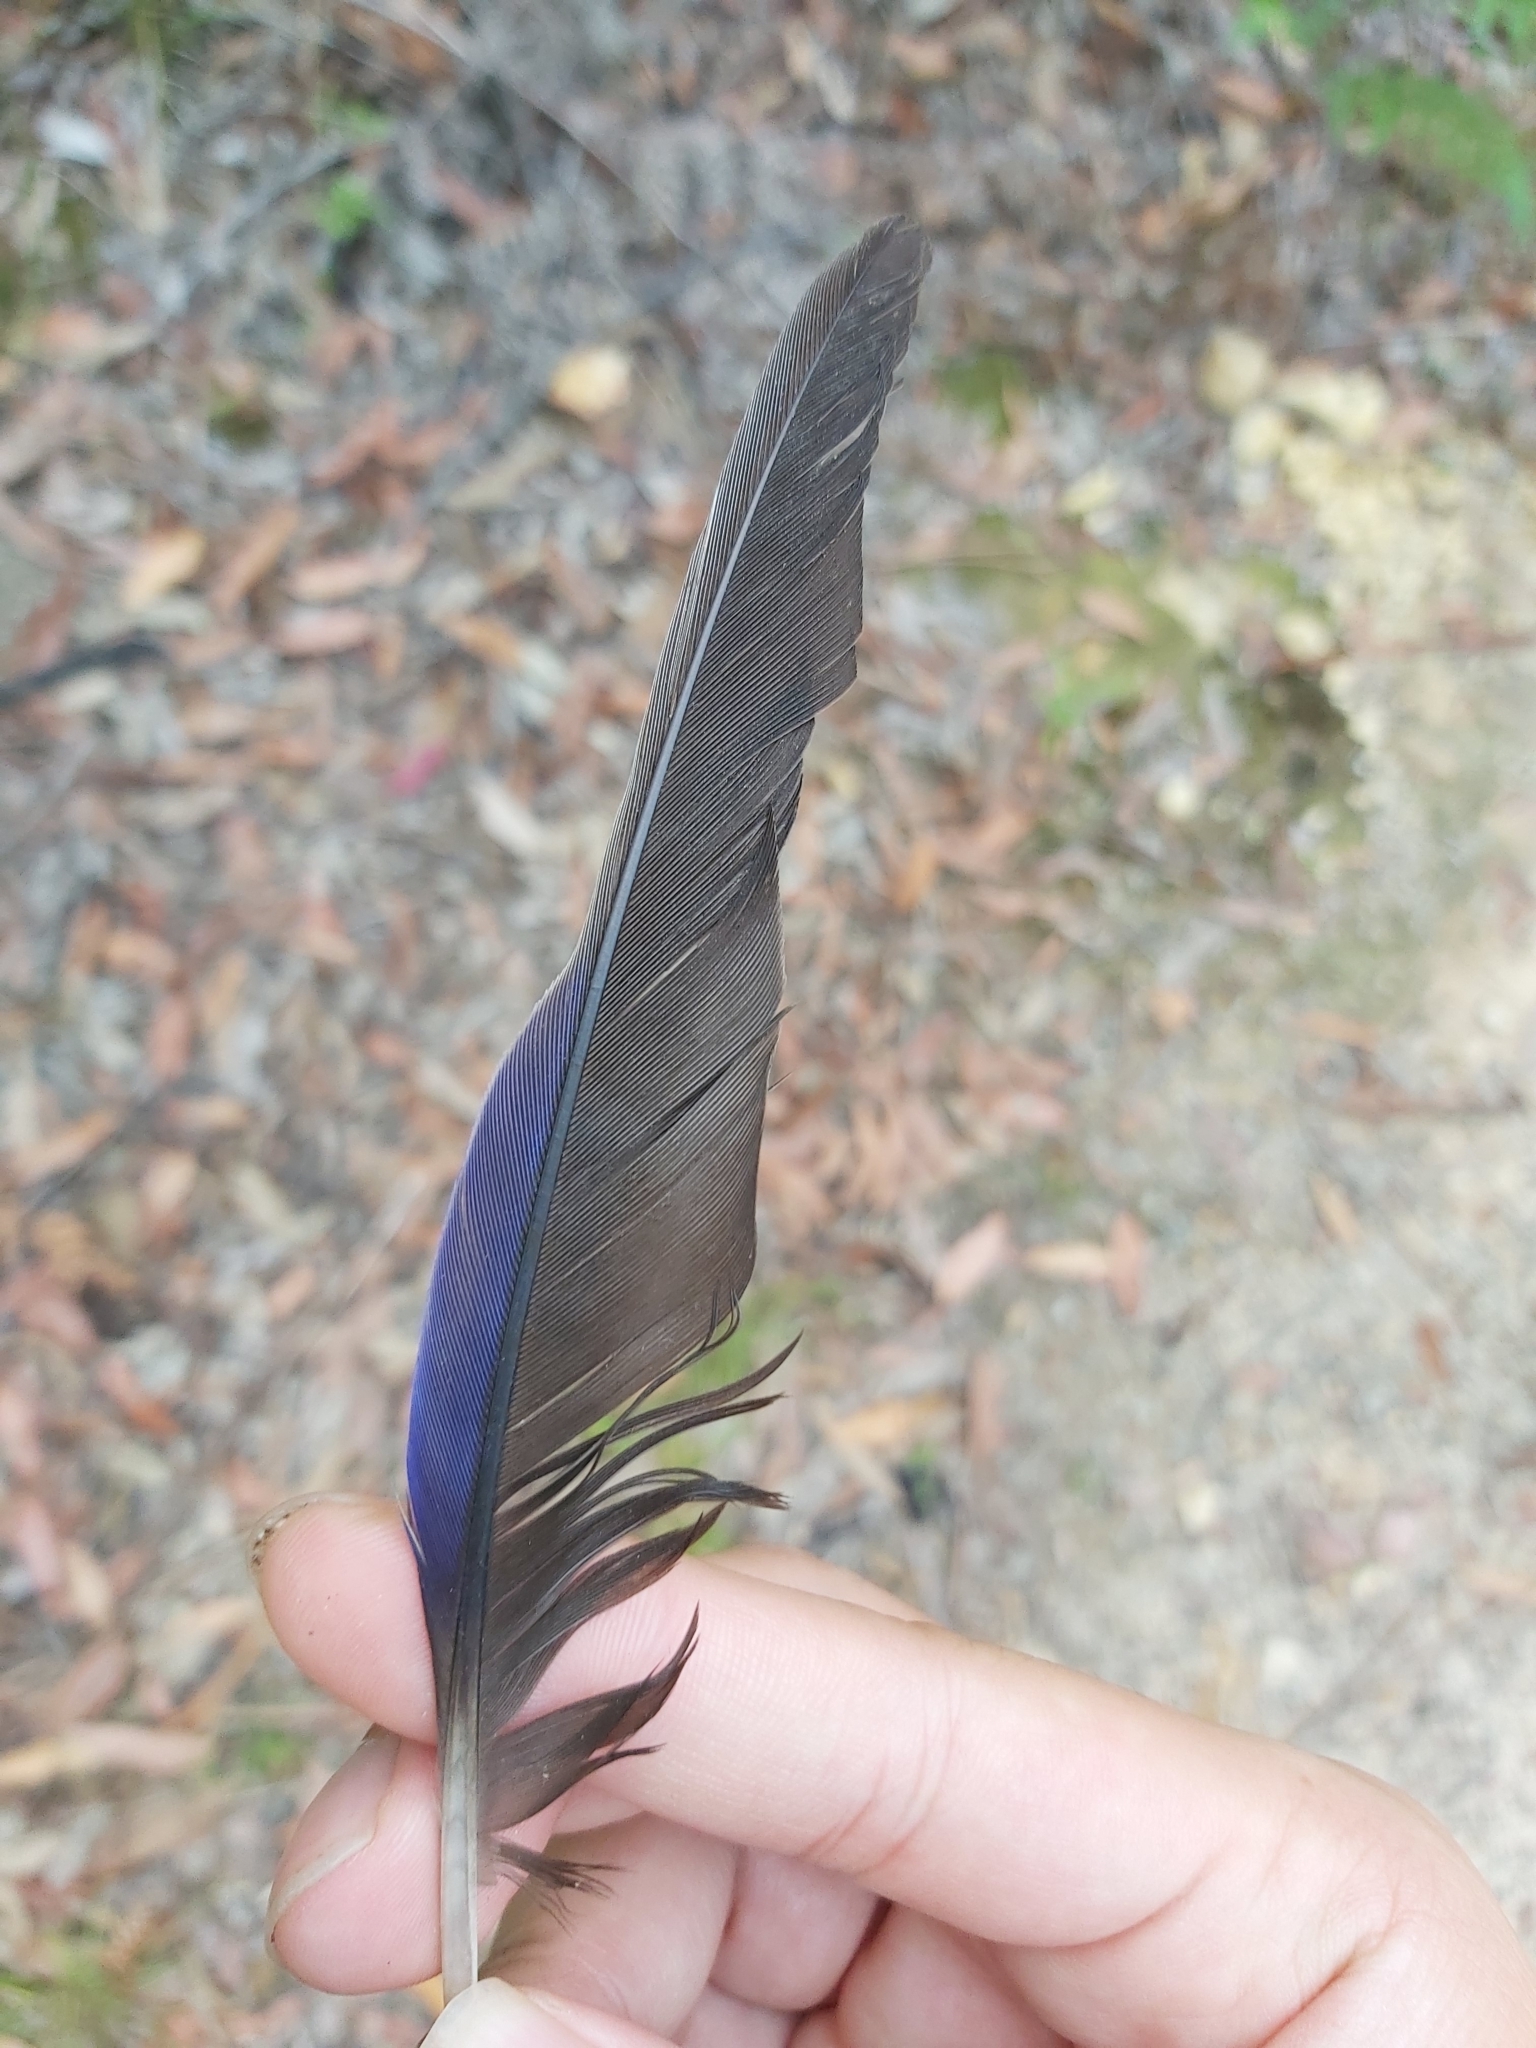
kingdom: Animalia
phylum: Chordata
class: Aves
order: Psittaciformes
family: Psittacidae
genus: Platycercus
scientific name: Platycercus elegans
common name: Crimson rosella
